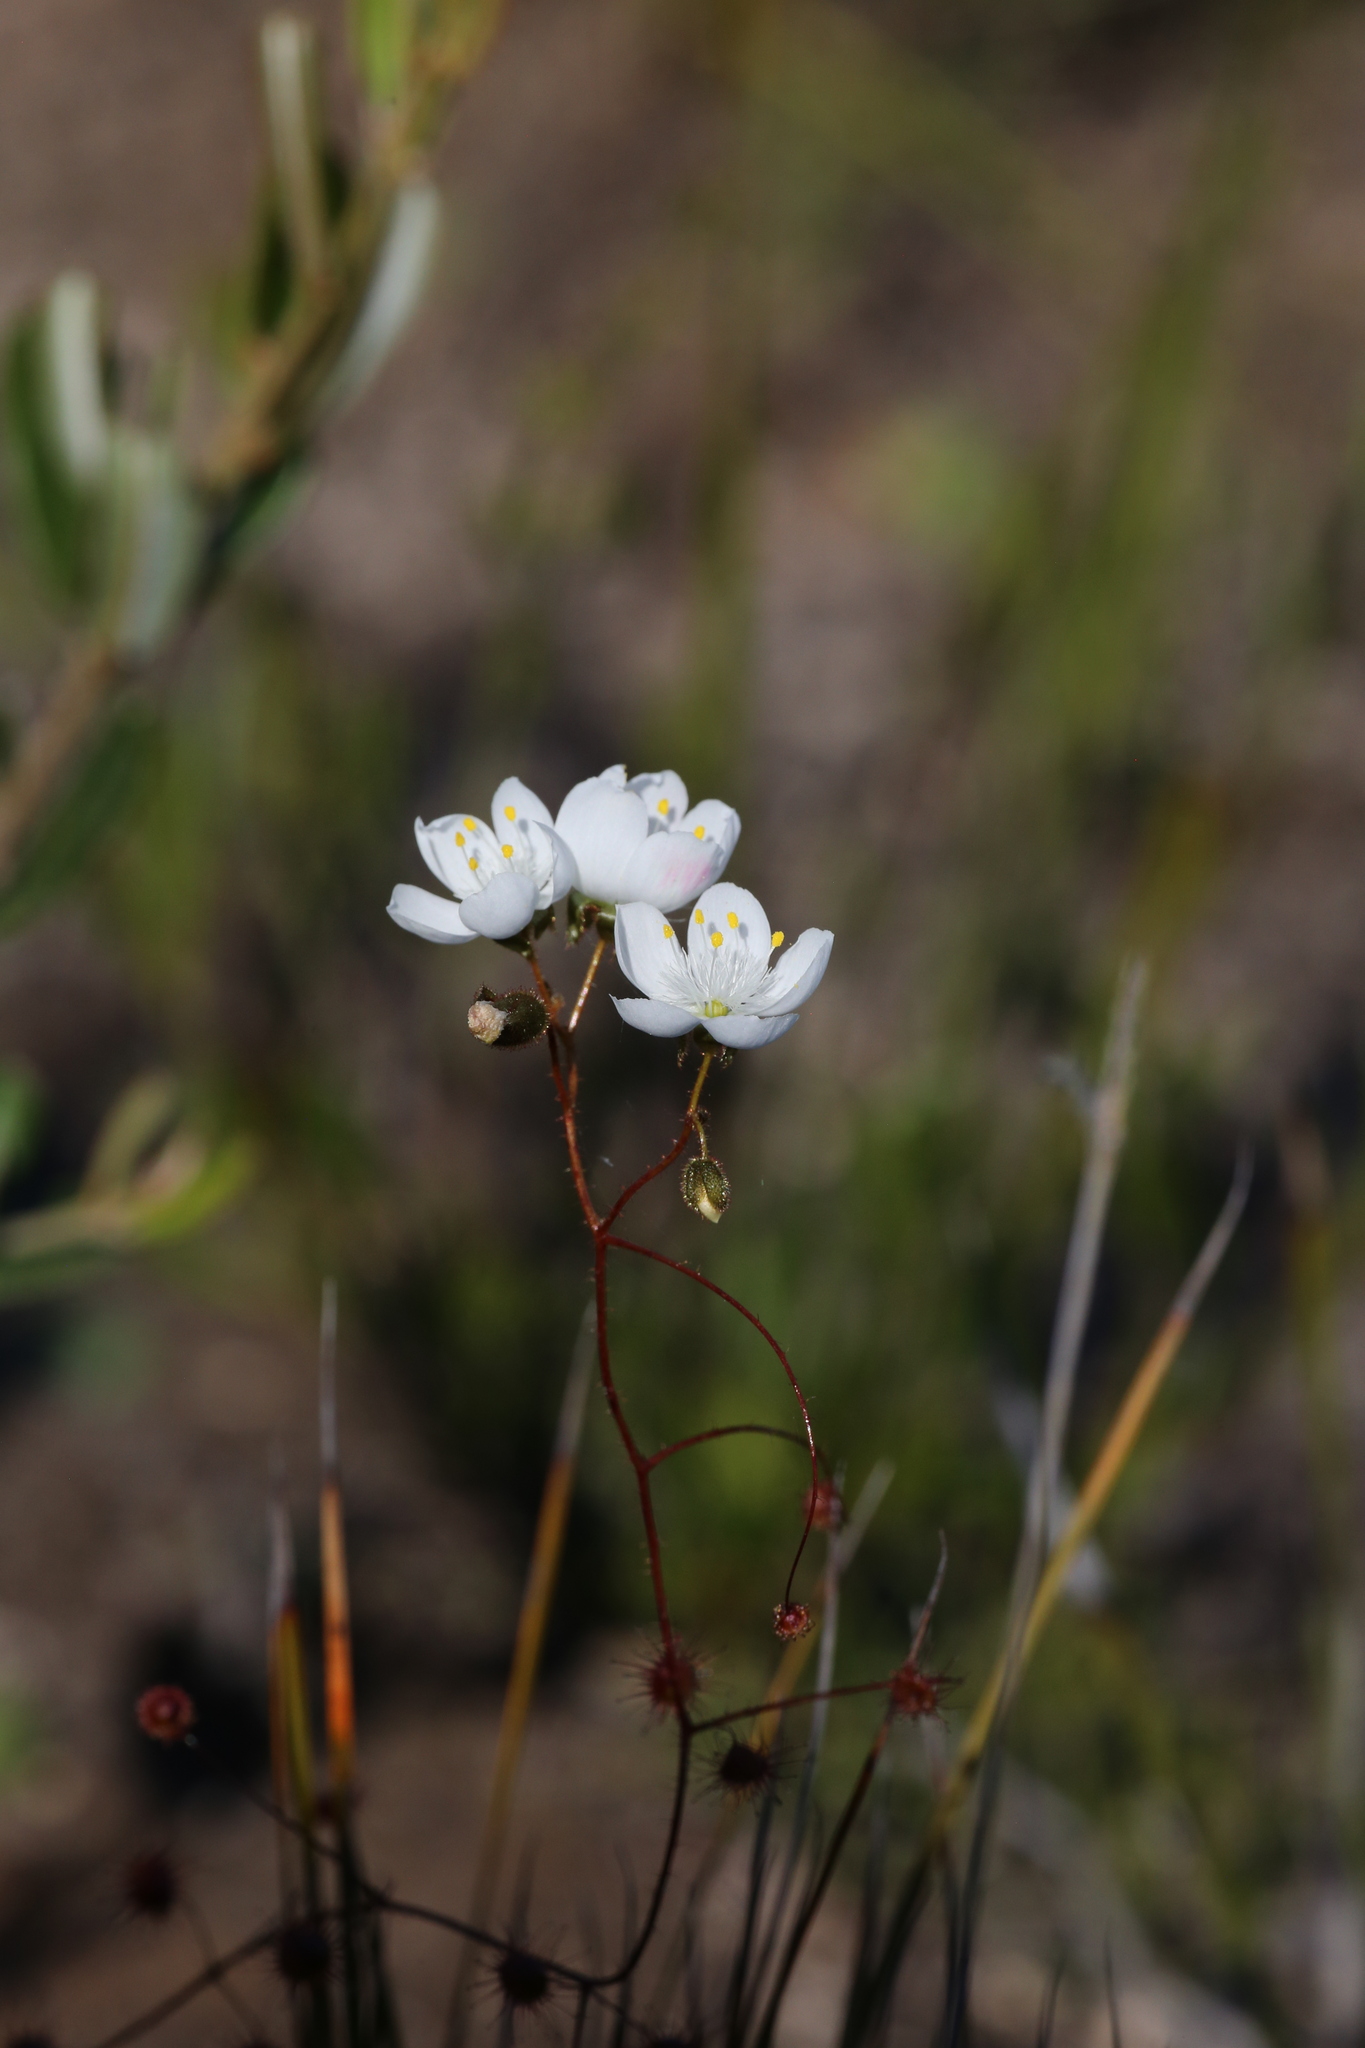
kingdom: Plantae
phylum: Tracheophyta
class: Magnoliopsida
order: Caryophyllales
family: Droseraceae
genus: Drosera
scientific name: Drosera macrantha
